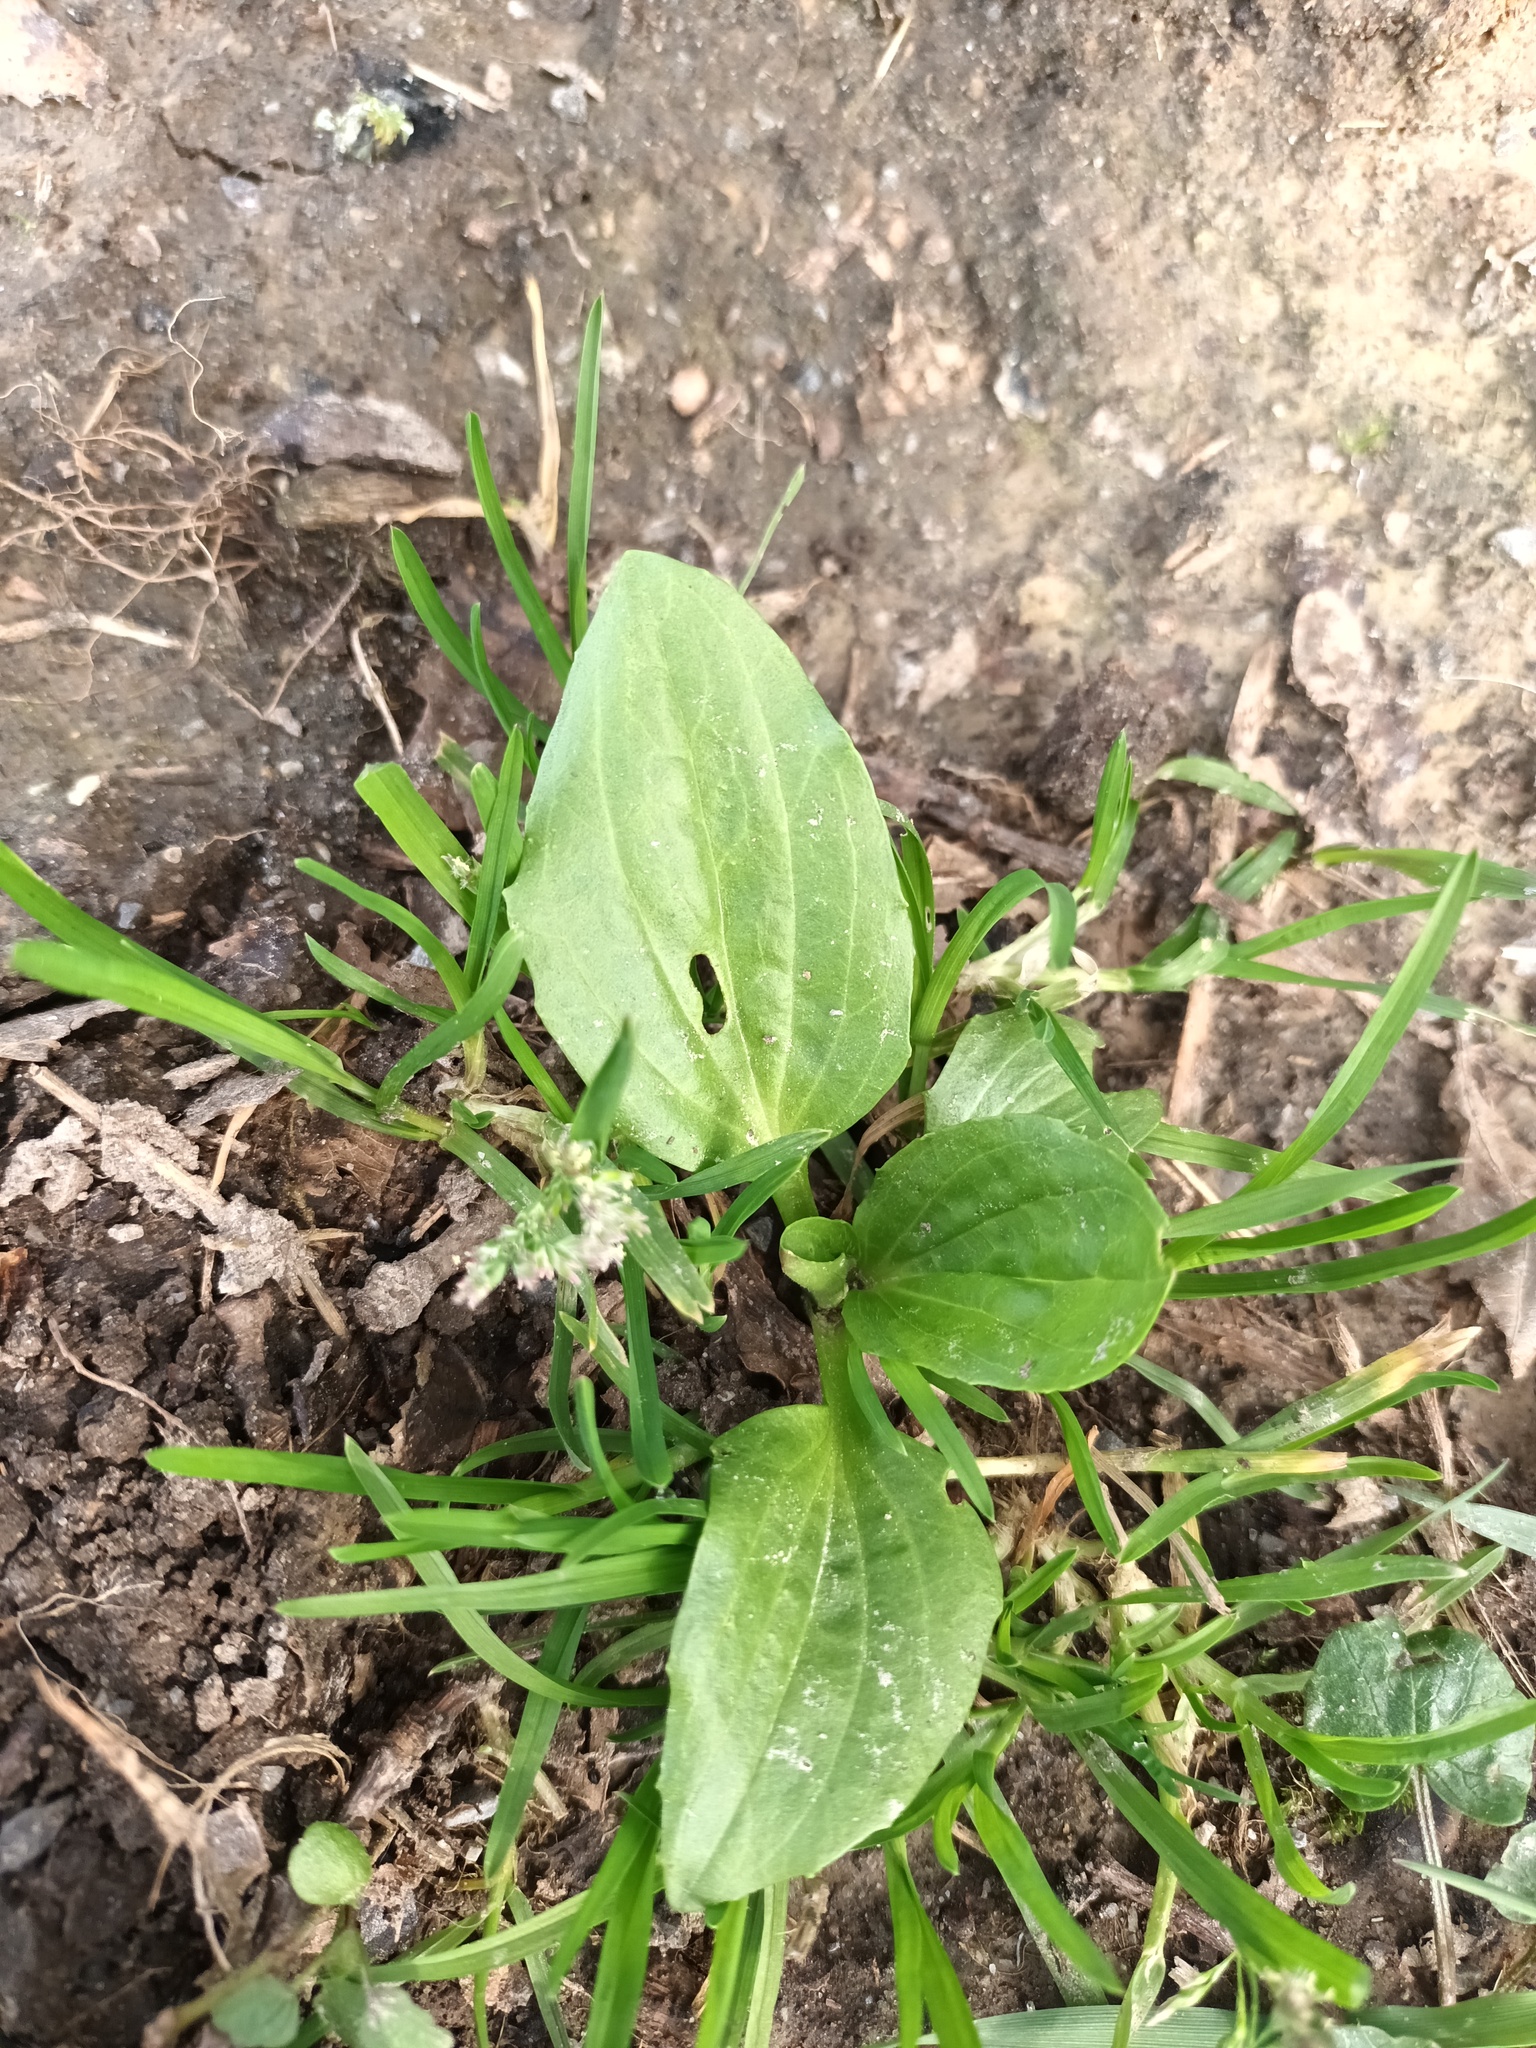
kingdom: Plantae
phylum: Tracheophyta
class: Magnoliopsida
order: Lamiales
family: Plantaginaceae
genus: Plantago
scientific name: Plantago major
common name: Common plantain
